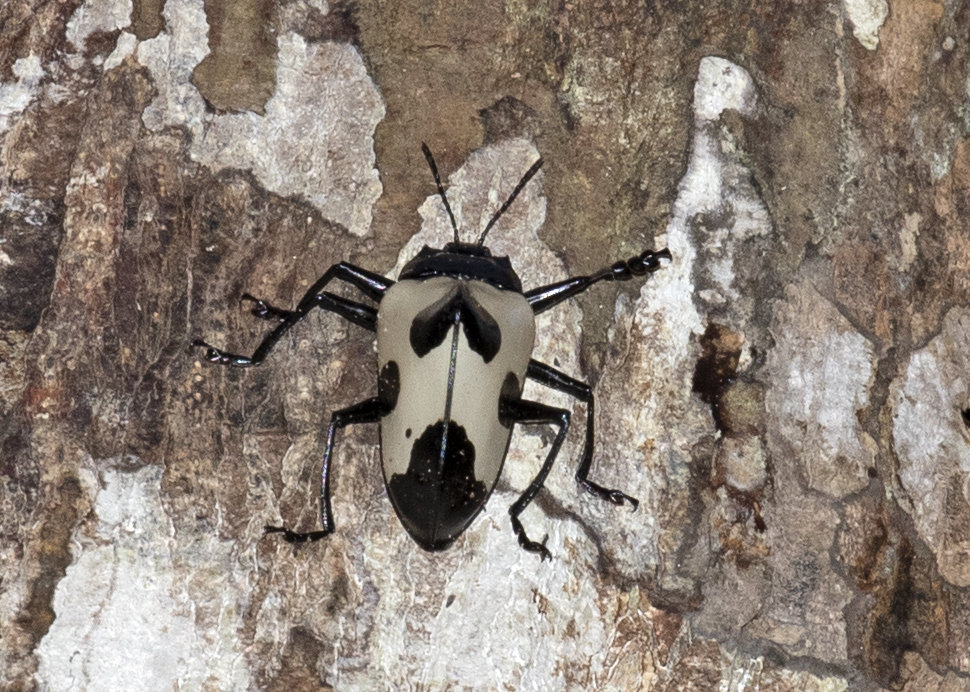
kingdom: Animalia
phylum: Arthropoda
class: Insecta
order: Coleoptera
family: Erotylidae
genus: Gibbifer
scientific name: Gibbifer
